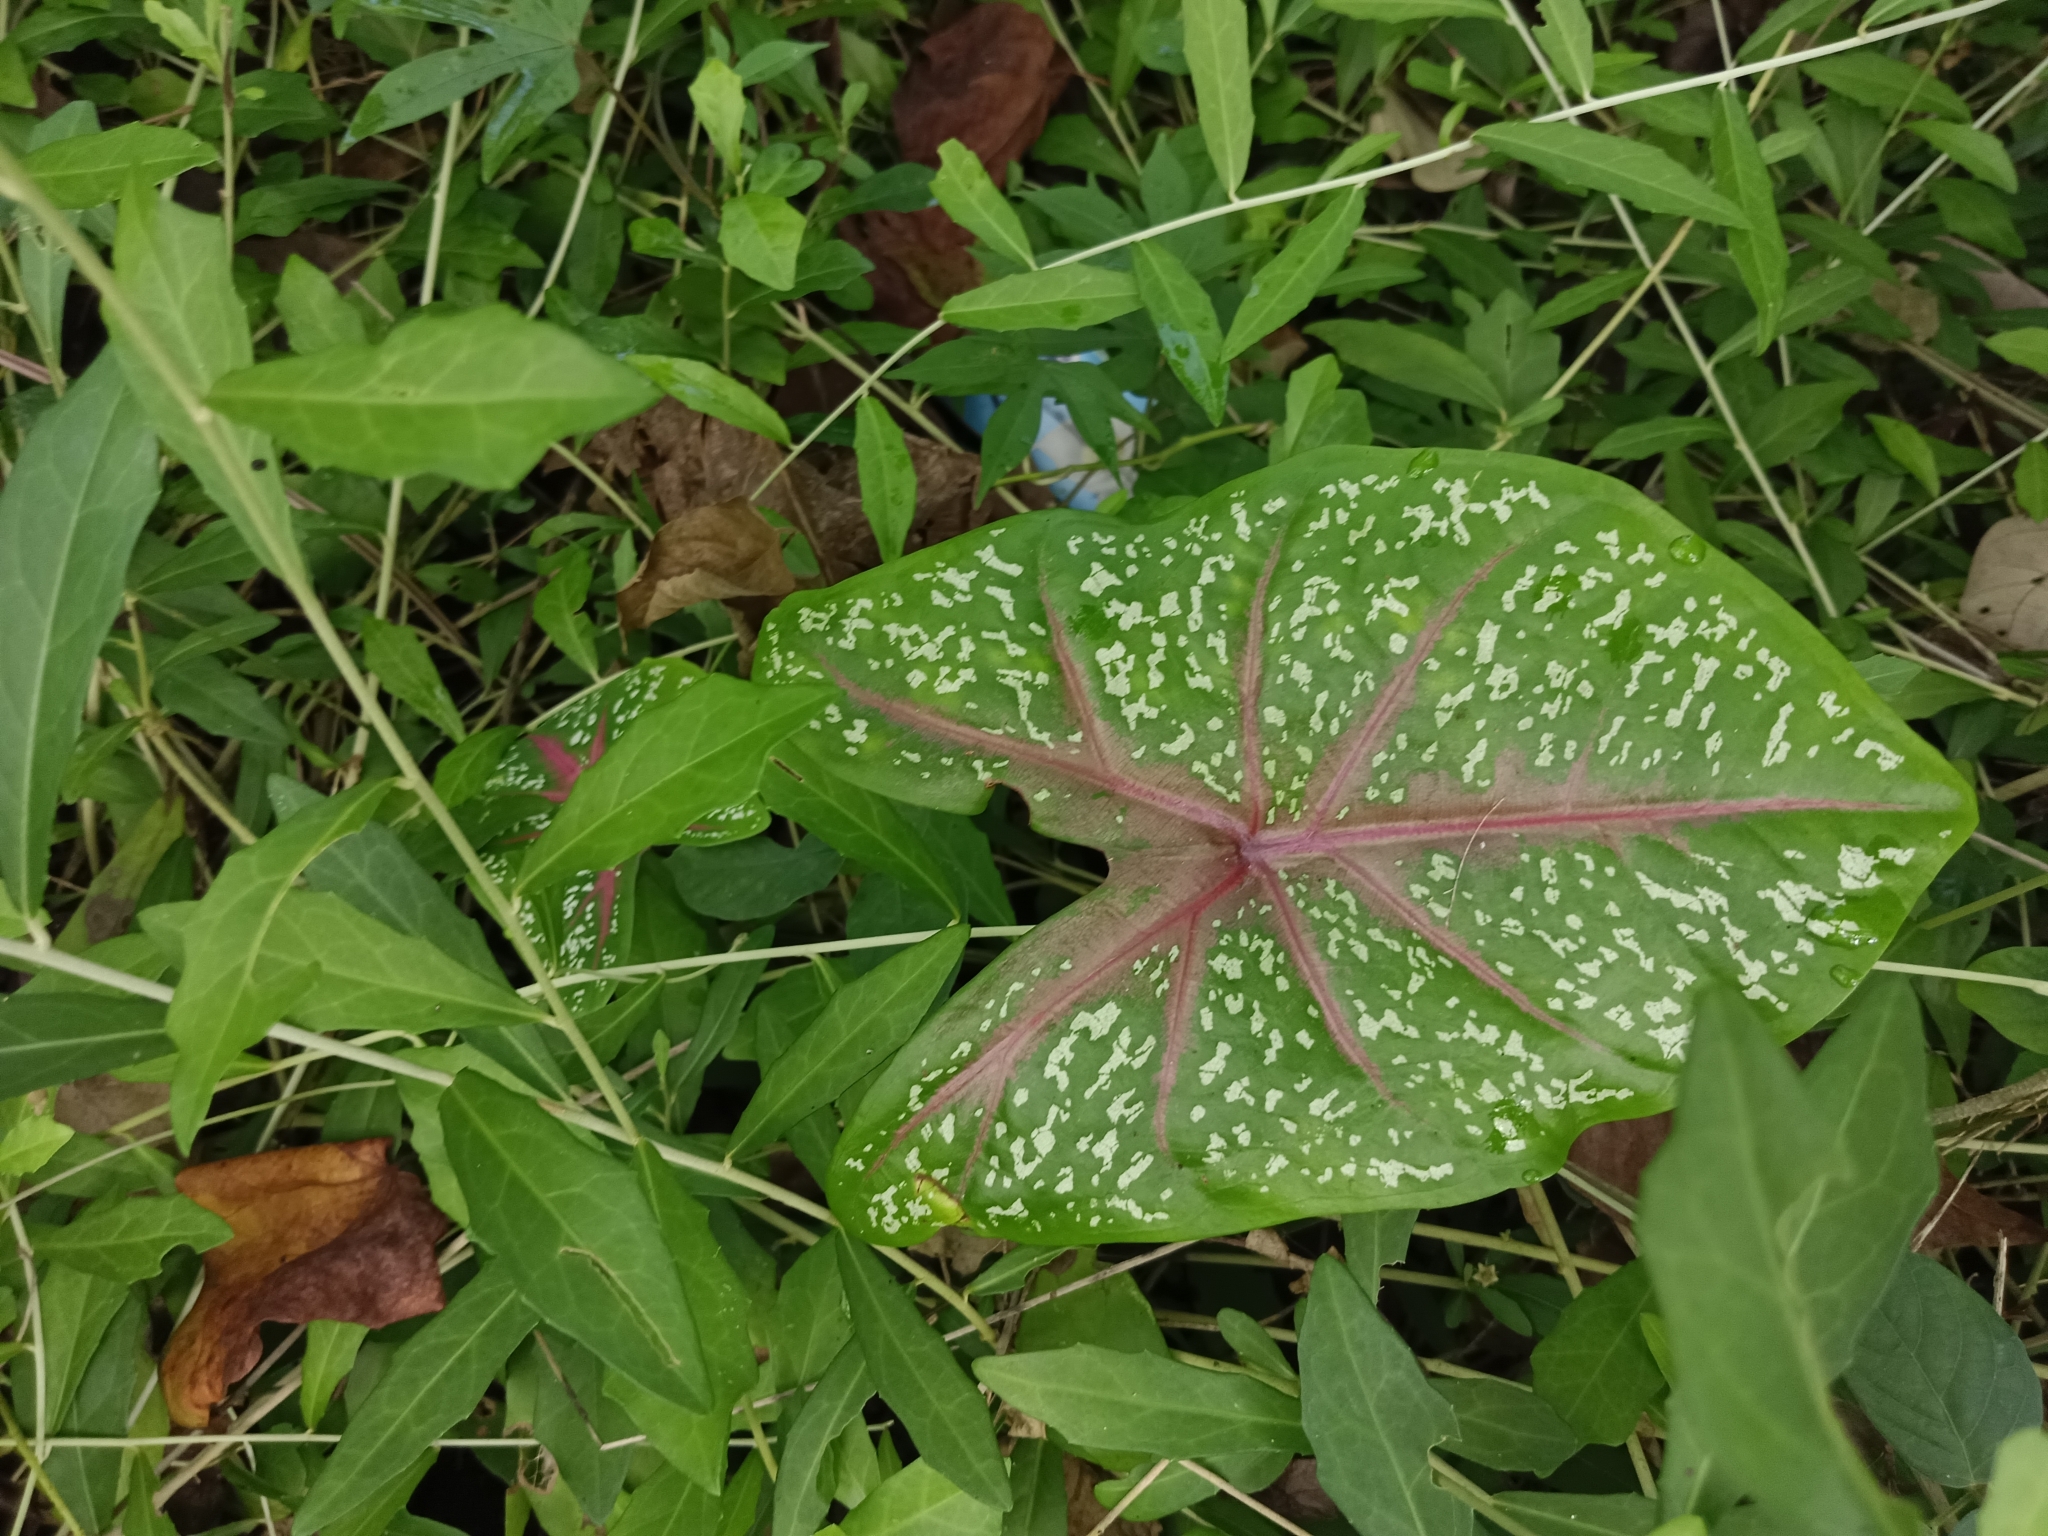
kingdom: Plantae
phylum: Tracheophyta
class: Liliopsida
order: Alismatales
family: Araceae
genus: Caladium
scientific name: Caladium bicolor
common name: Artist's pallet
